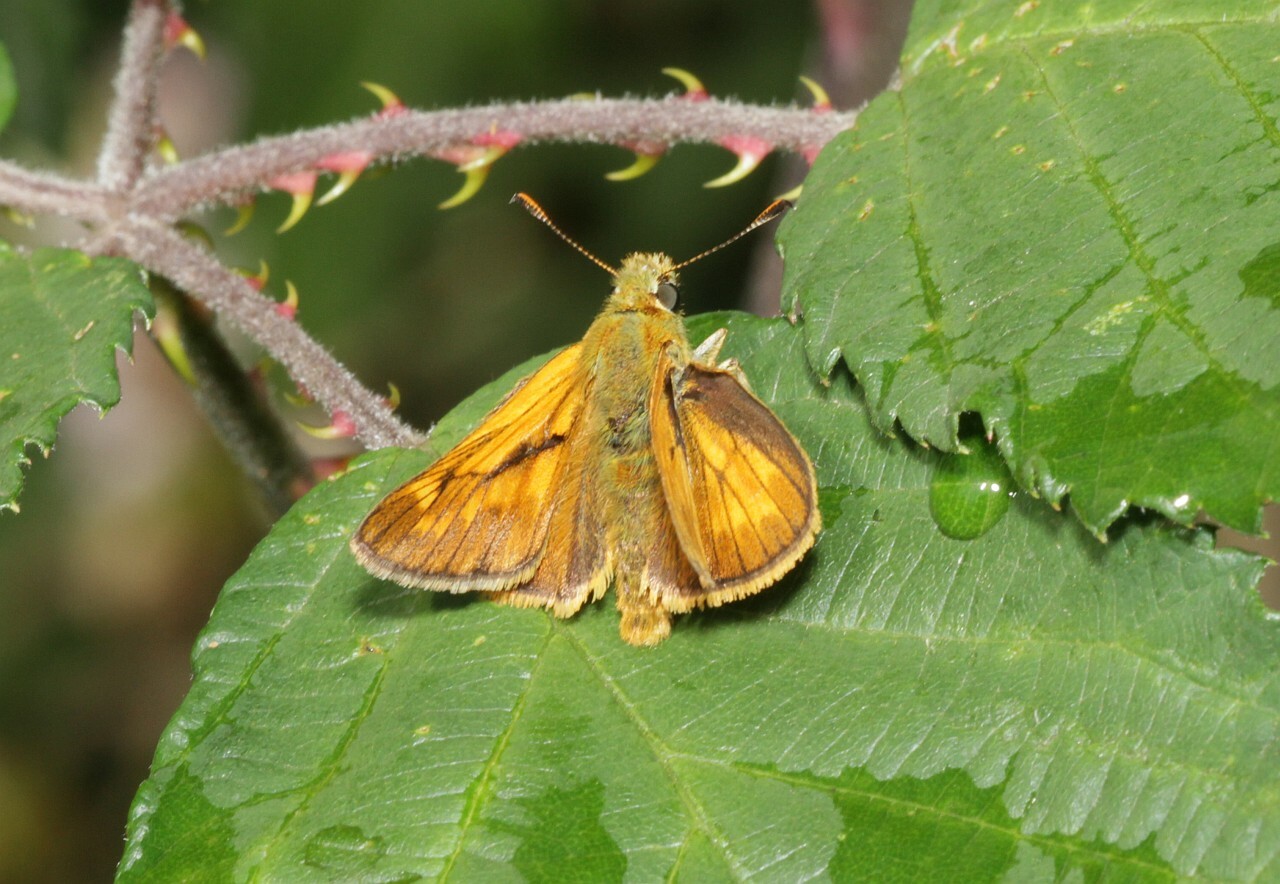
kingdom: Animalia
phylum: Arthropoda
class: Insecta
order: Lepidoptera
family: Hesperiidae
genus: Ochlodes
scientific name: Ochlodes venata
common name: Large skipper
